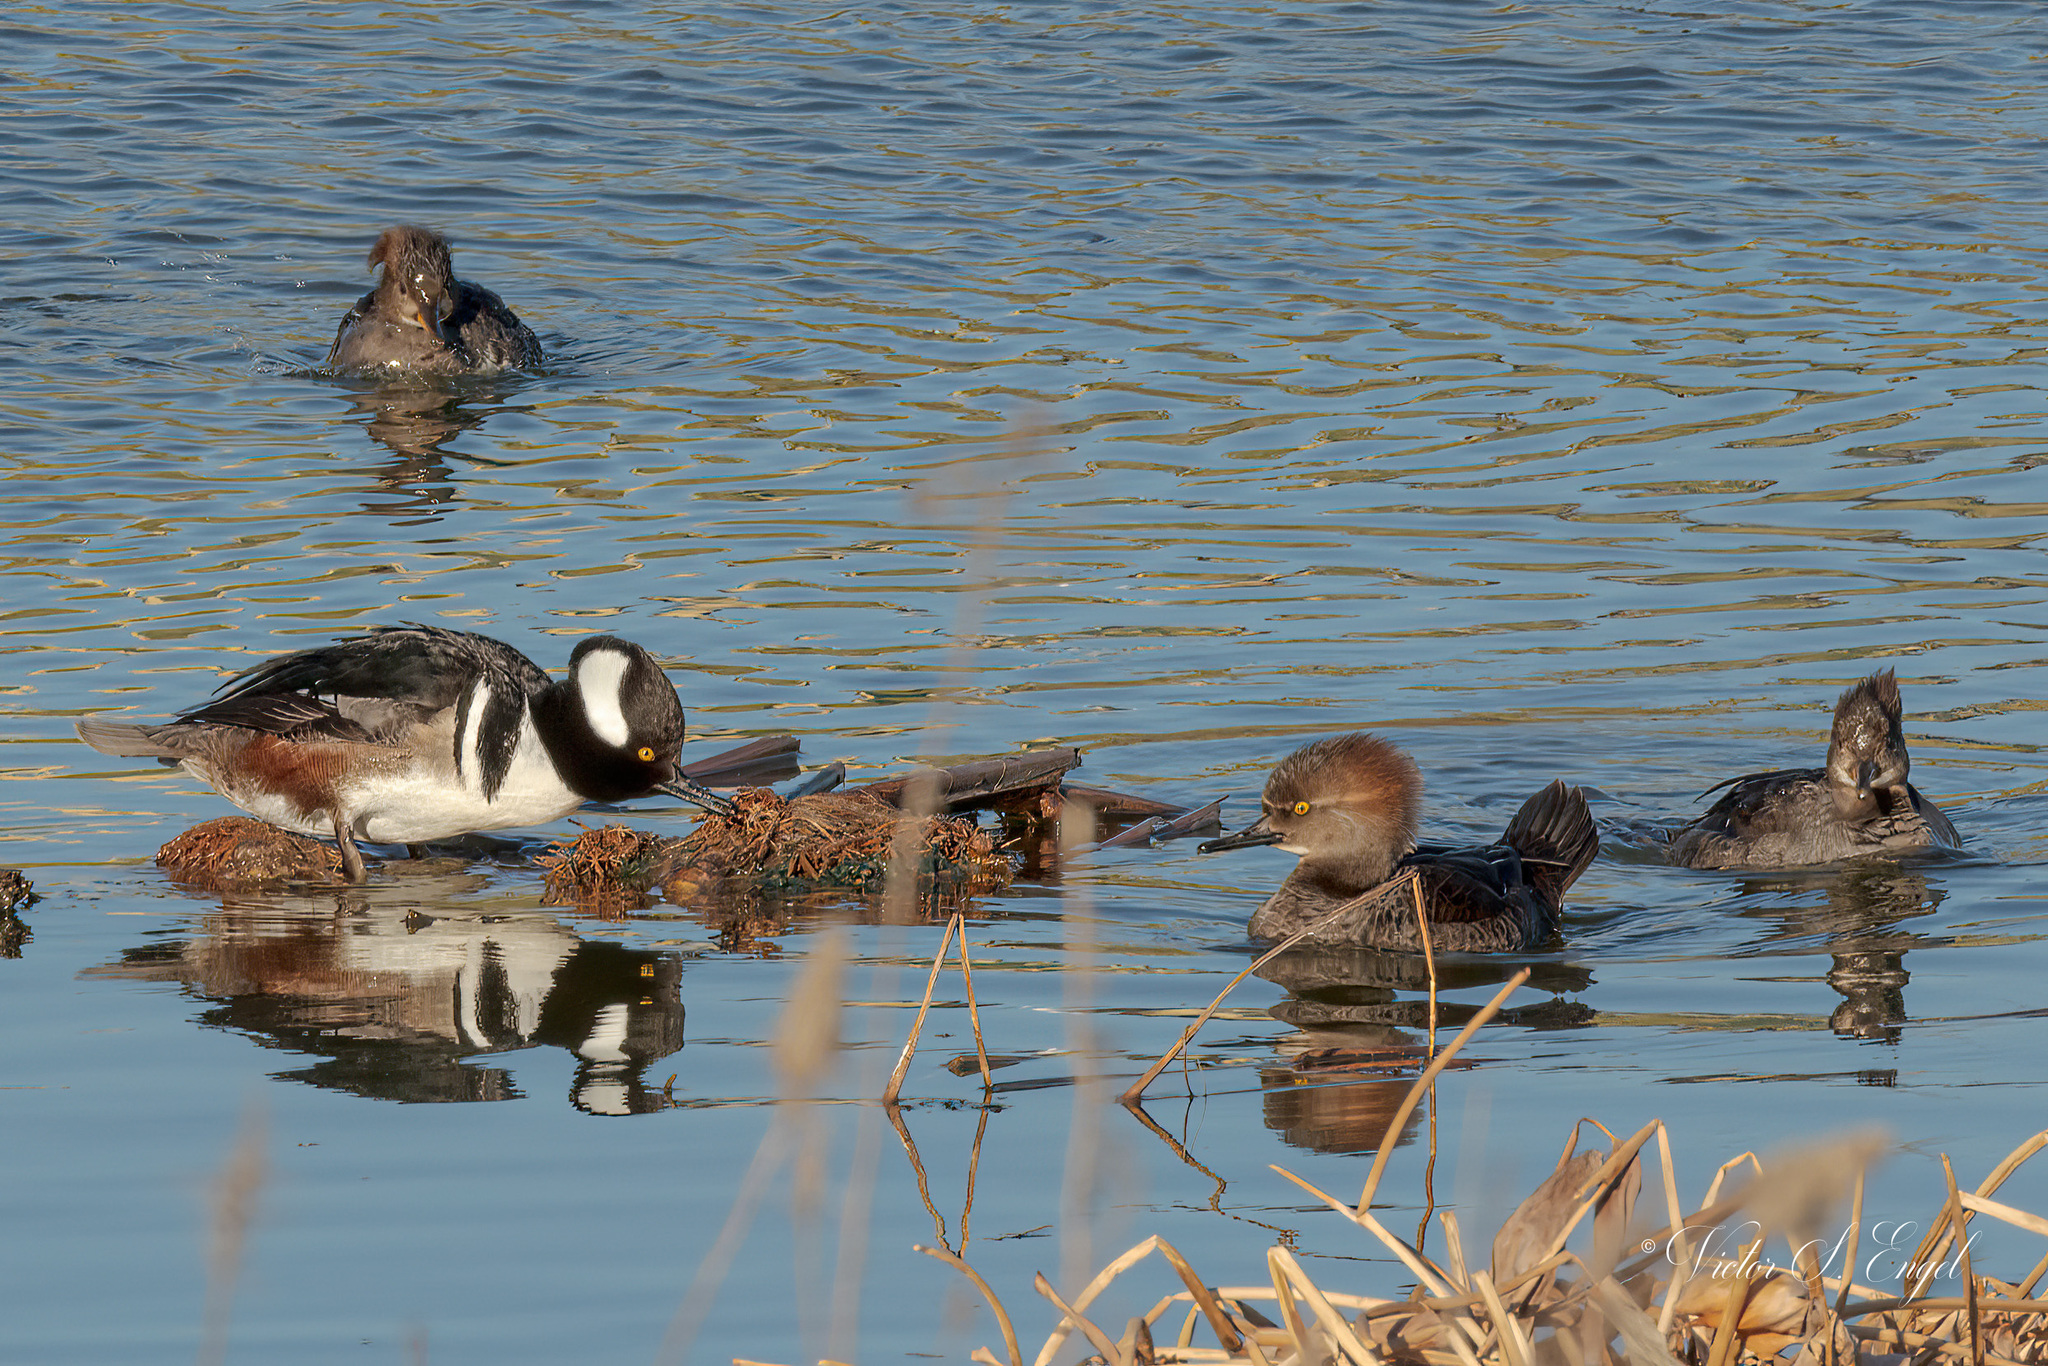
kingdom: Animalia
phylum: Chordata
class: Aves
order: Anseriformes
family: Anatidae
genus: Lophodytes
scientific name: Lophodytes cucullatus
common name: Hooded merganser
